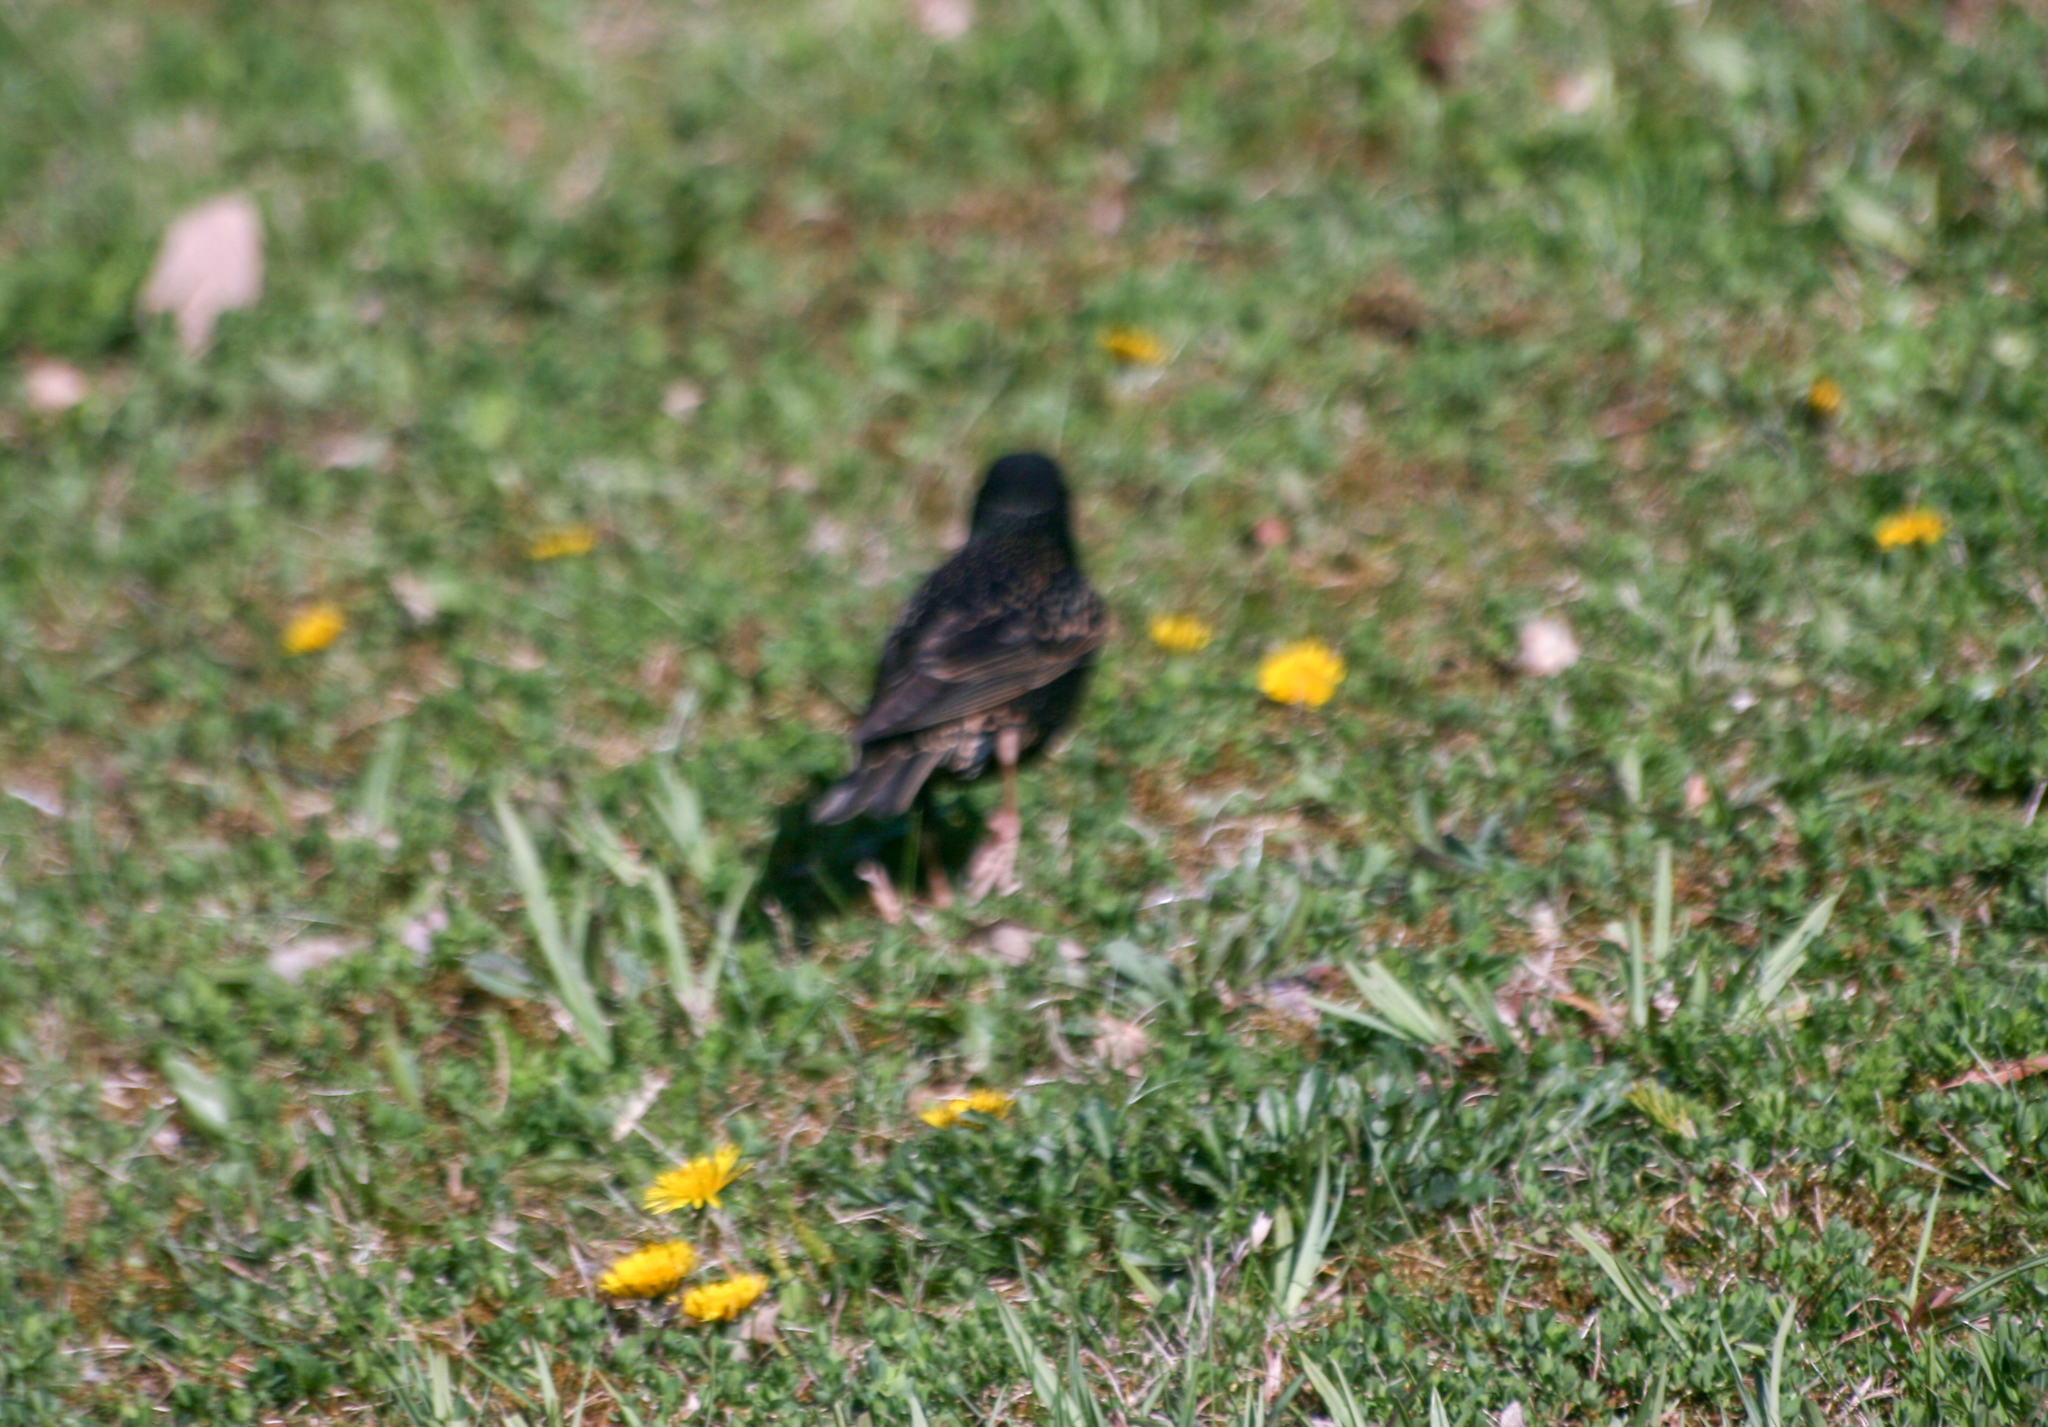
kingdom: Animalia
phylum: Chordata
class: Aves
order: Passeriformes
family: Sturnidae
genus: Sturnus
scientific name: Sturnus vulgaris
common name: Common starling
